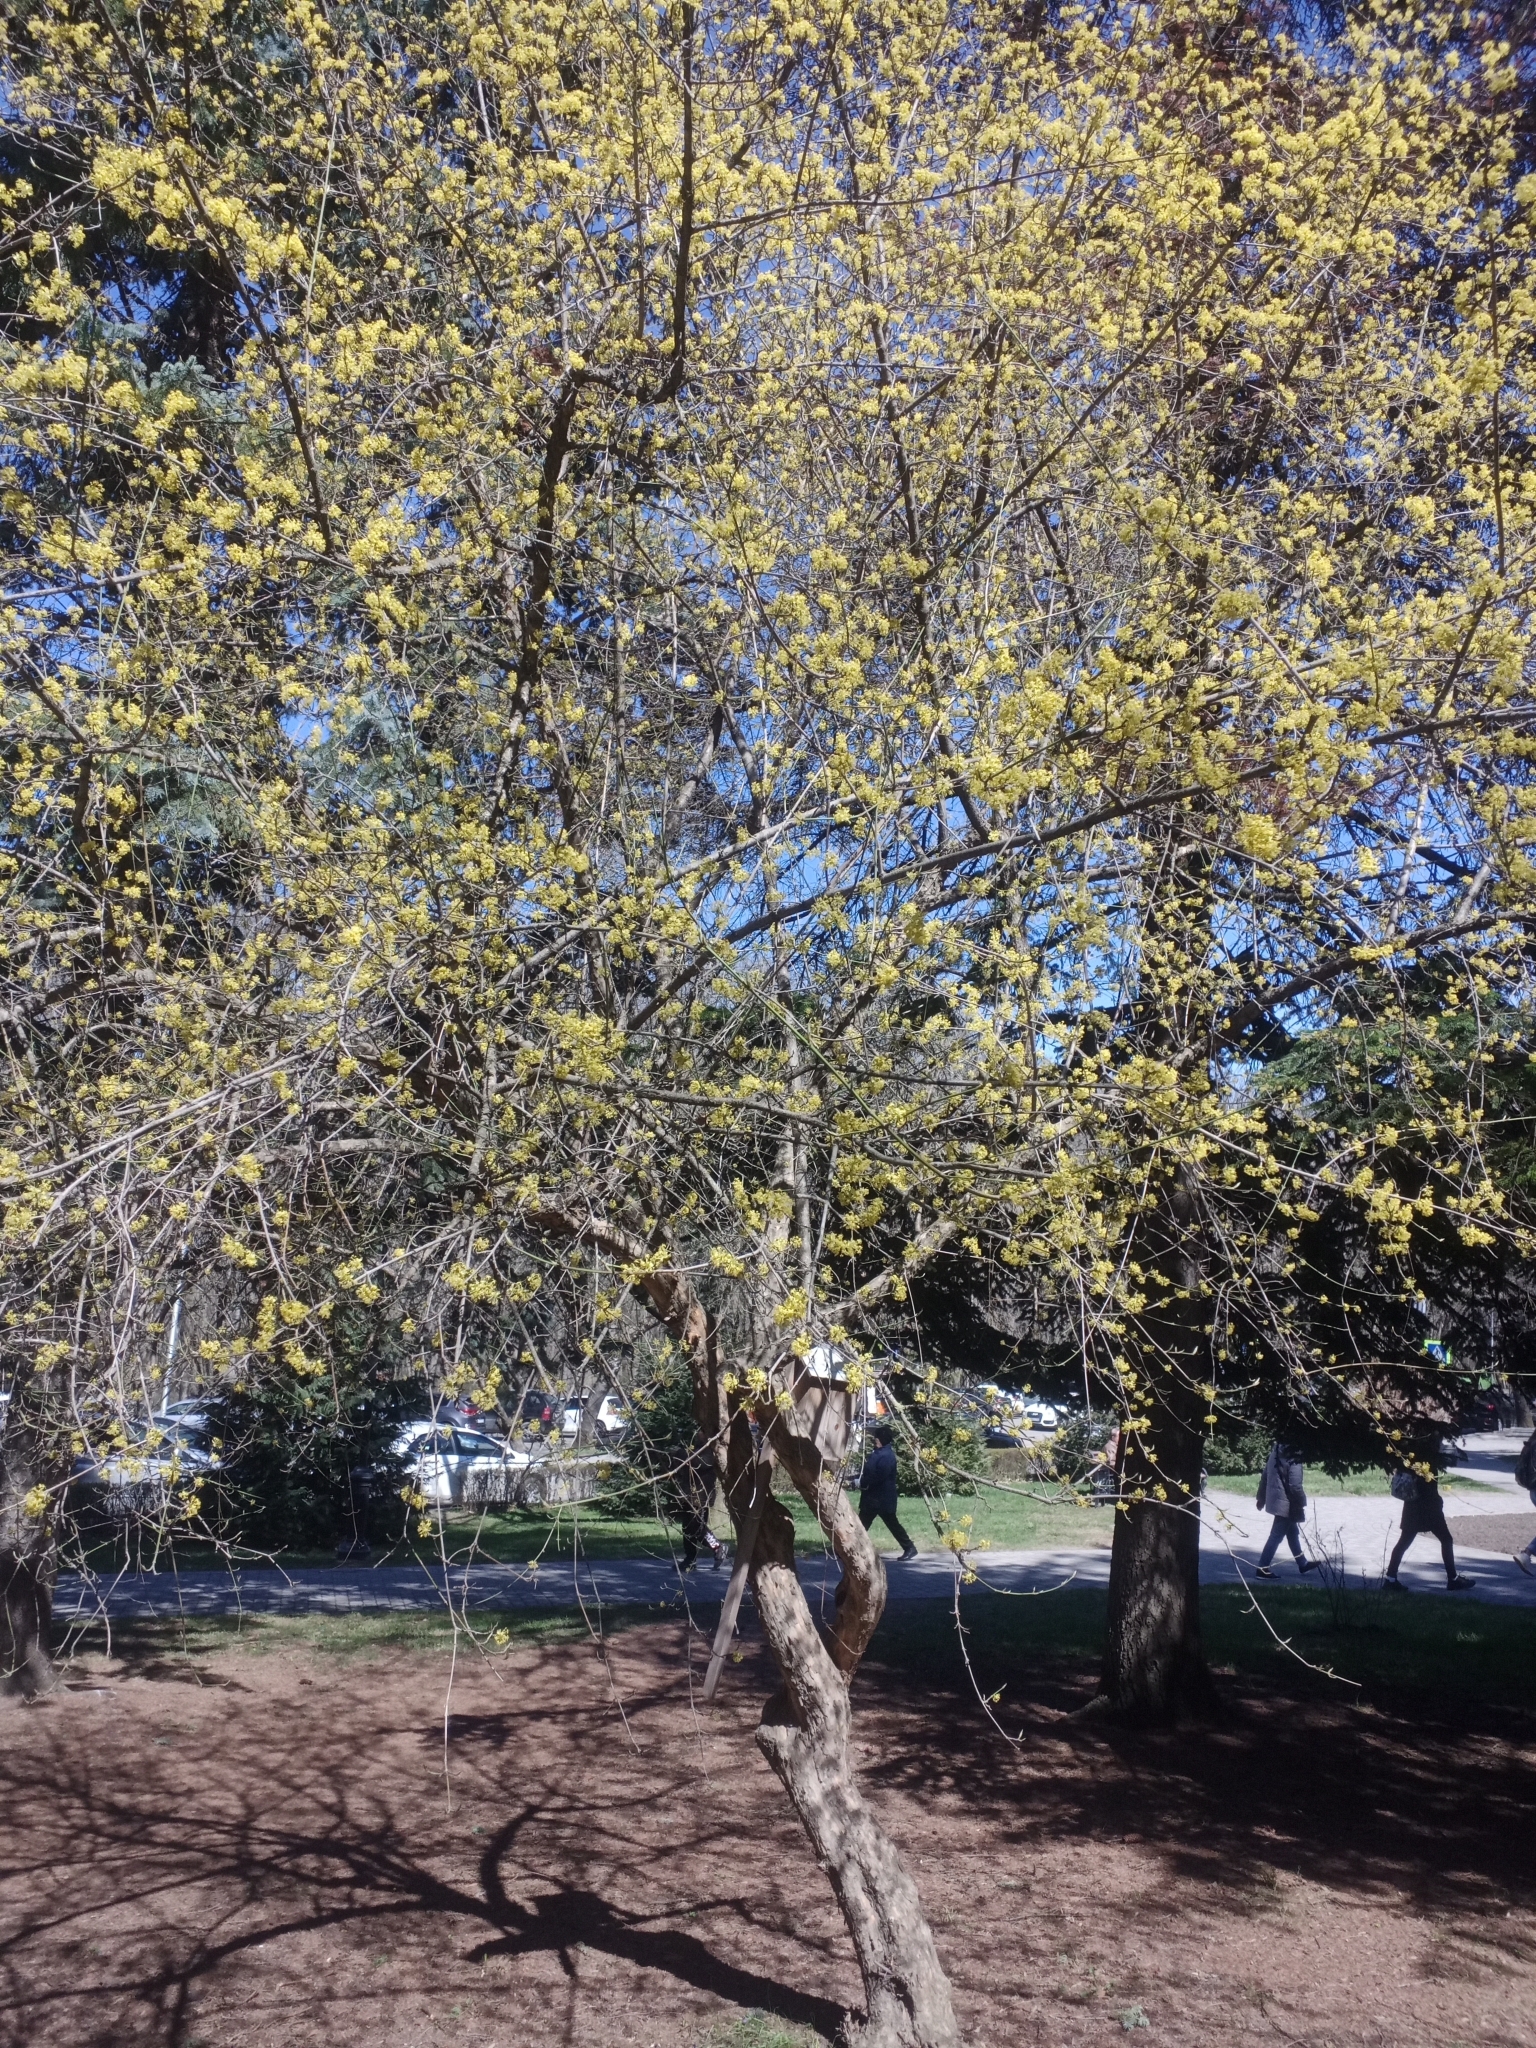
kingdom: Plantae
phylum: Tracheophyta
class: Magnoliopsida
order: Cornales
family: Cornaceae
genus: Cornus
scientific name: Cornus mas
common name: Cornelian-cherry
